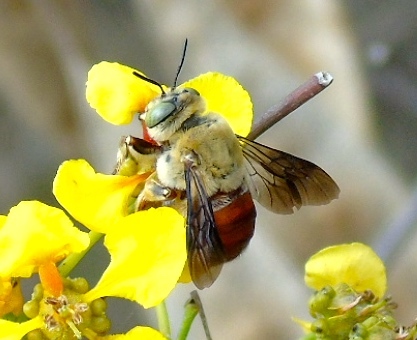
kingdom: Animalia
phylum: Arthropoda
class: Insecta
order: Hymenoptera
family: Apidae
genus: Centris
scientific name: Centris eurypatana
